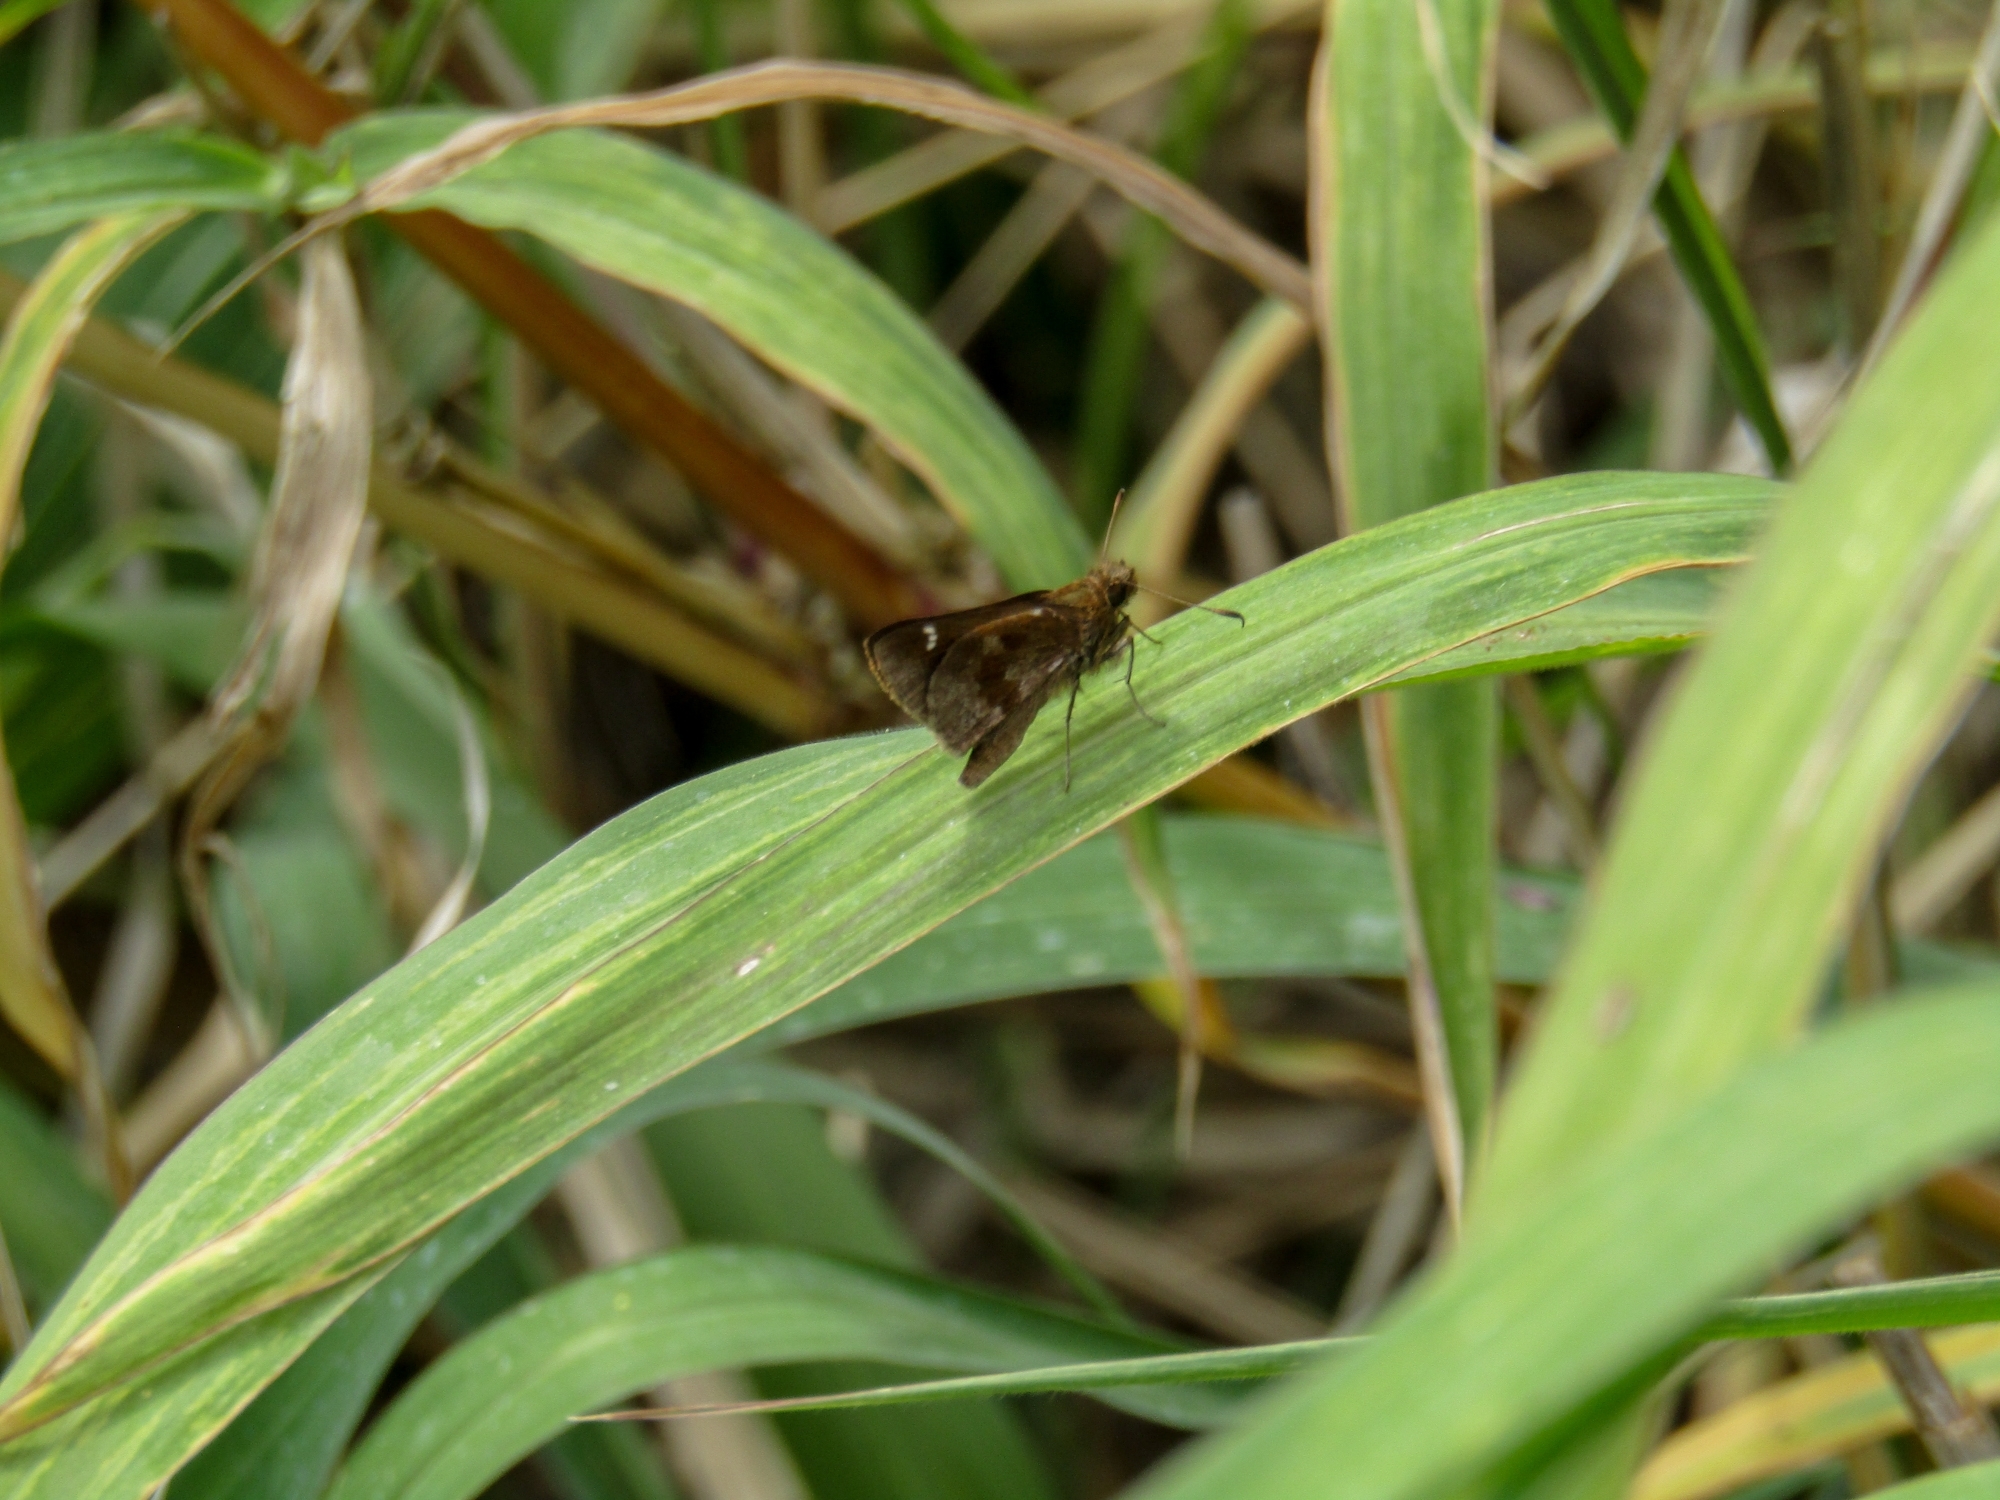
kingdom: Animalia
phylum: Arthropoda
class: Insecta
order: Lepidoptera
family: Hesperiidae
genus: Cymaenes
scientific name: Cymaenes
